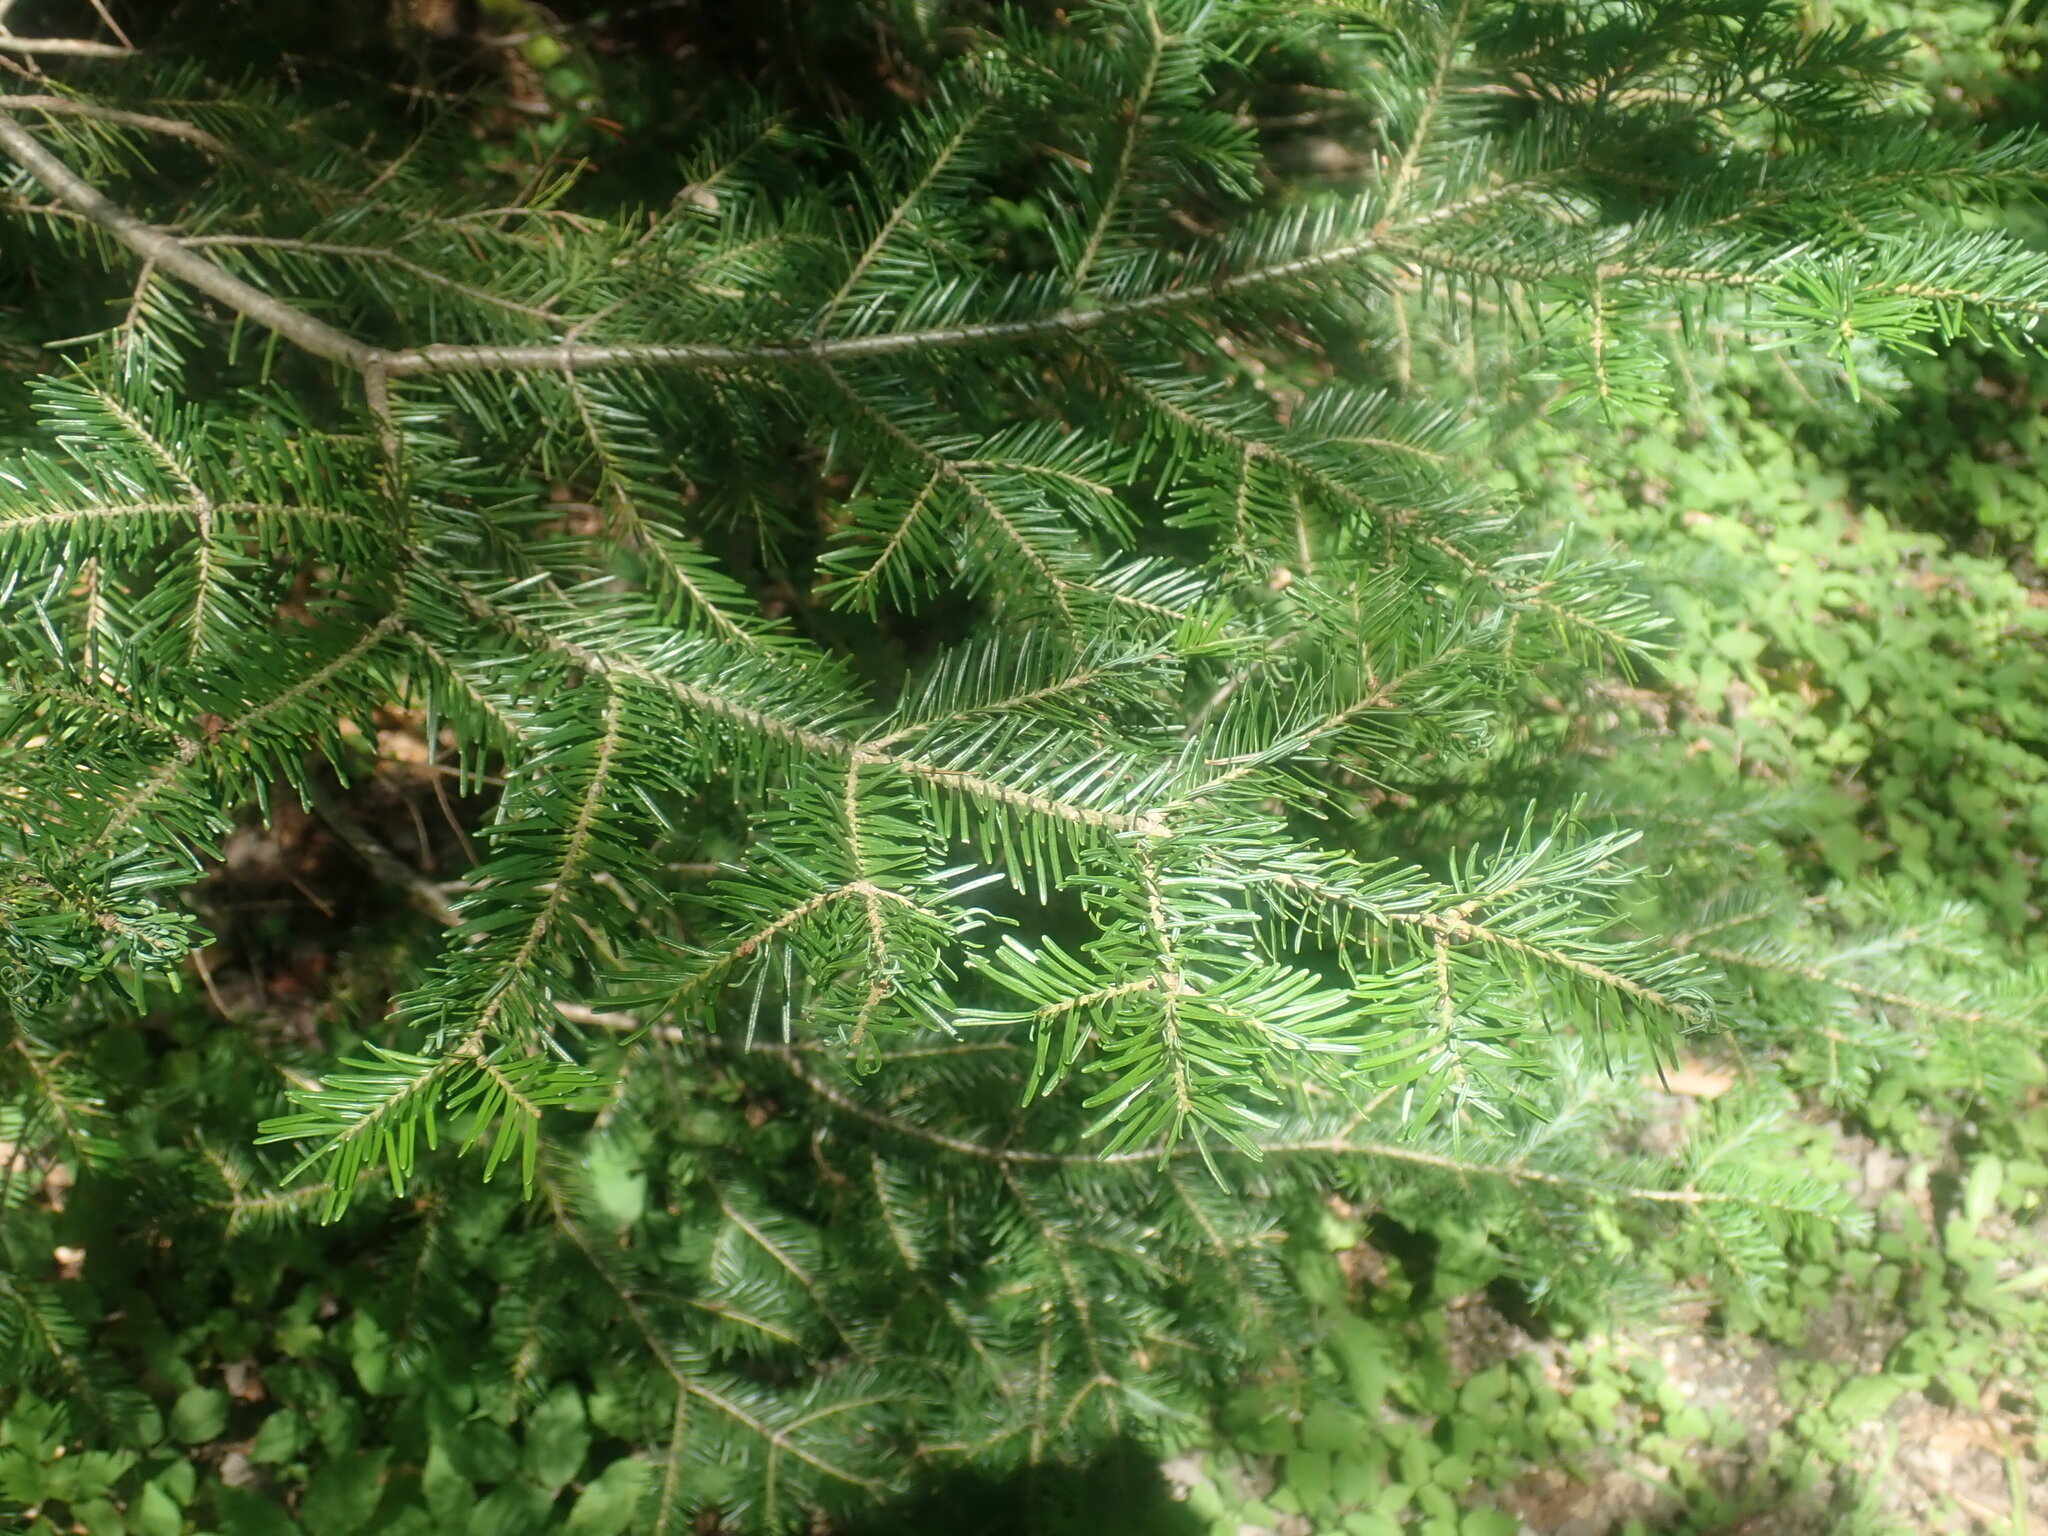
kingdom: Plantae
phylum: Tracheophyta
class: Pinopsida
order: Pinales
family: Pinaceae
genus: Abies
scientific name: Abies balsamea
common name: Balsam fir
